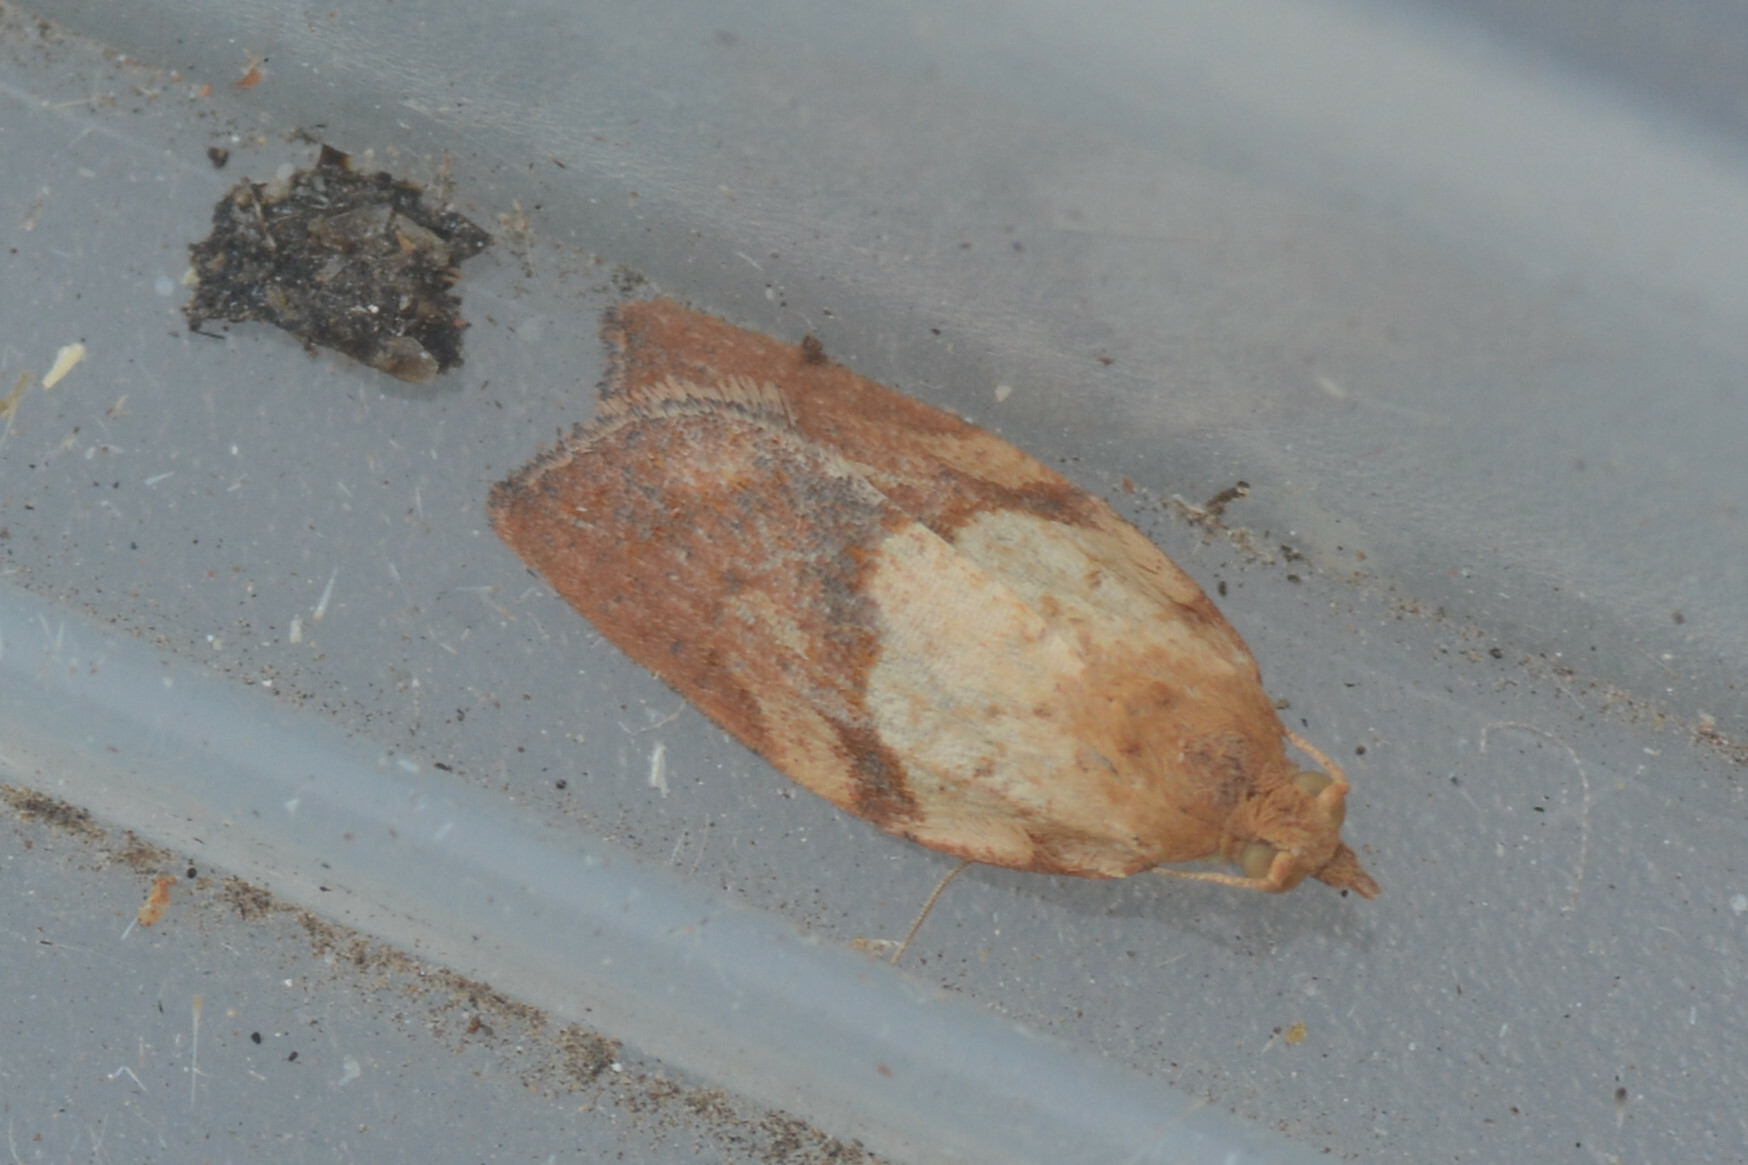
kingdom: Animalia
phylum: Arthropoda
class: Insecta
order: Lepidoptera
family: Tortricidae
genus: Epiphyas
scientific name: Epiphyas postvittana
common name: Light brown apple moth
